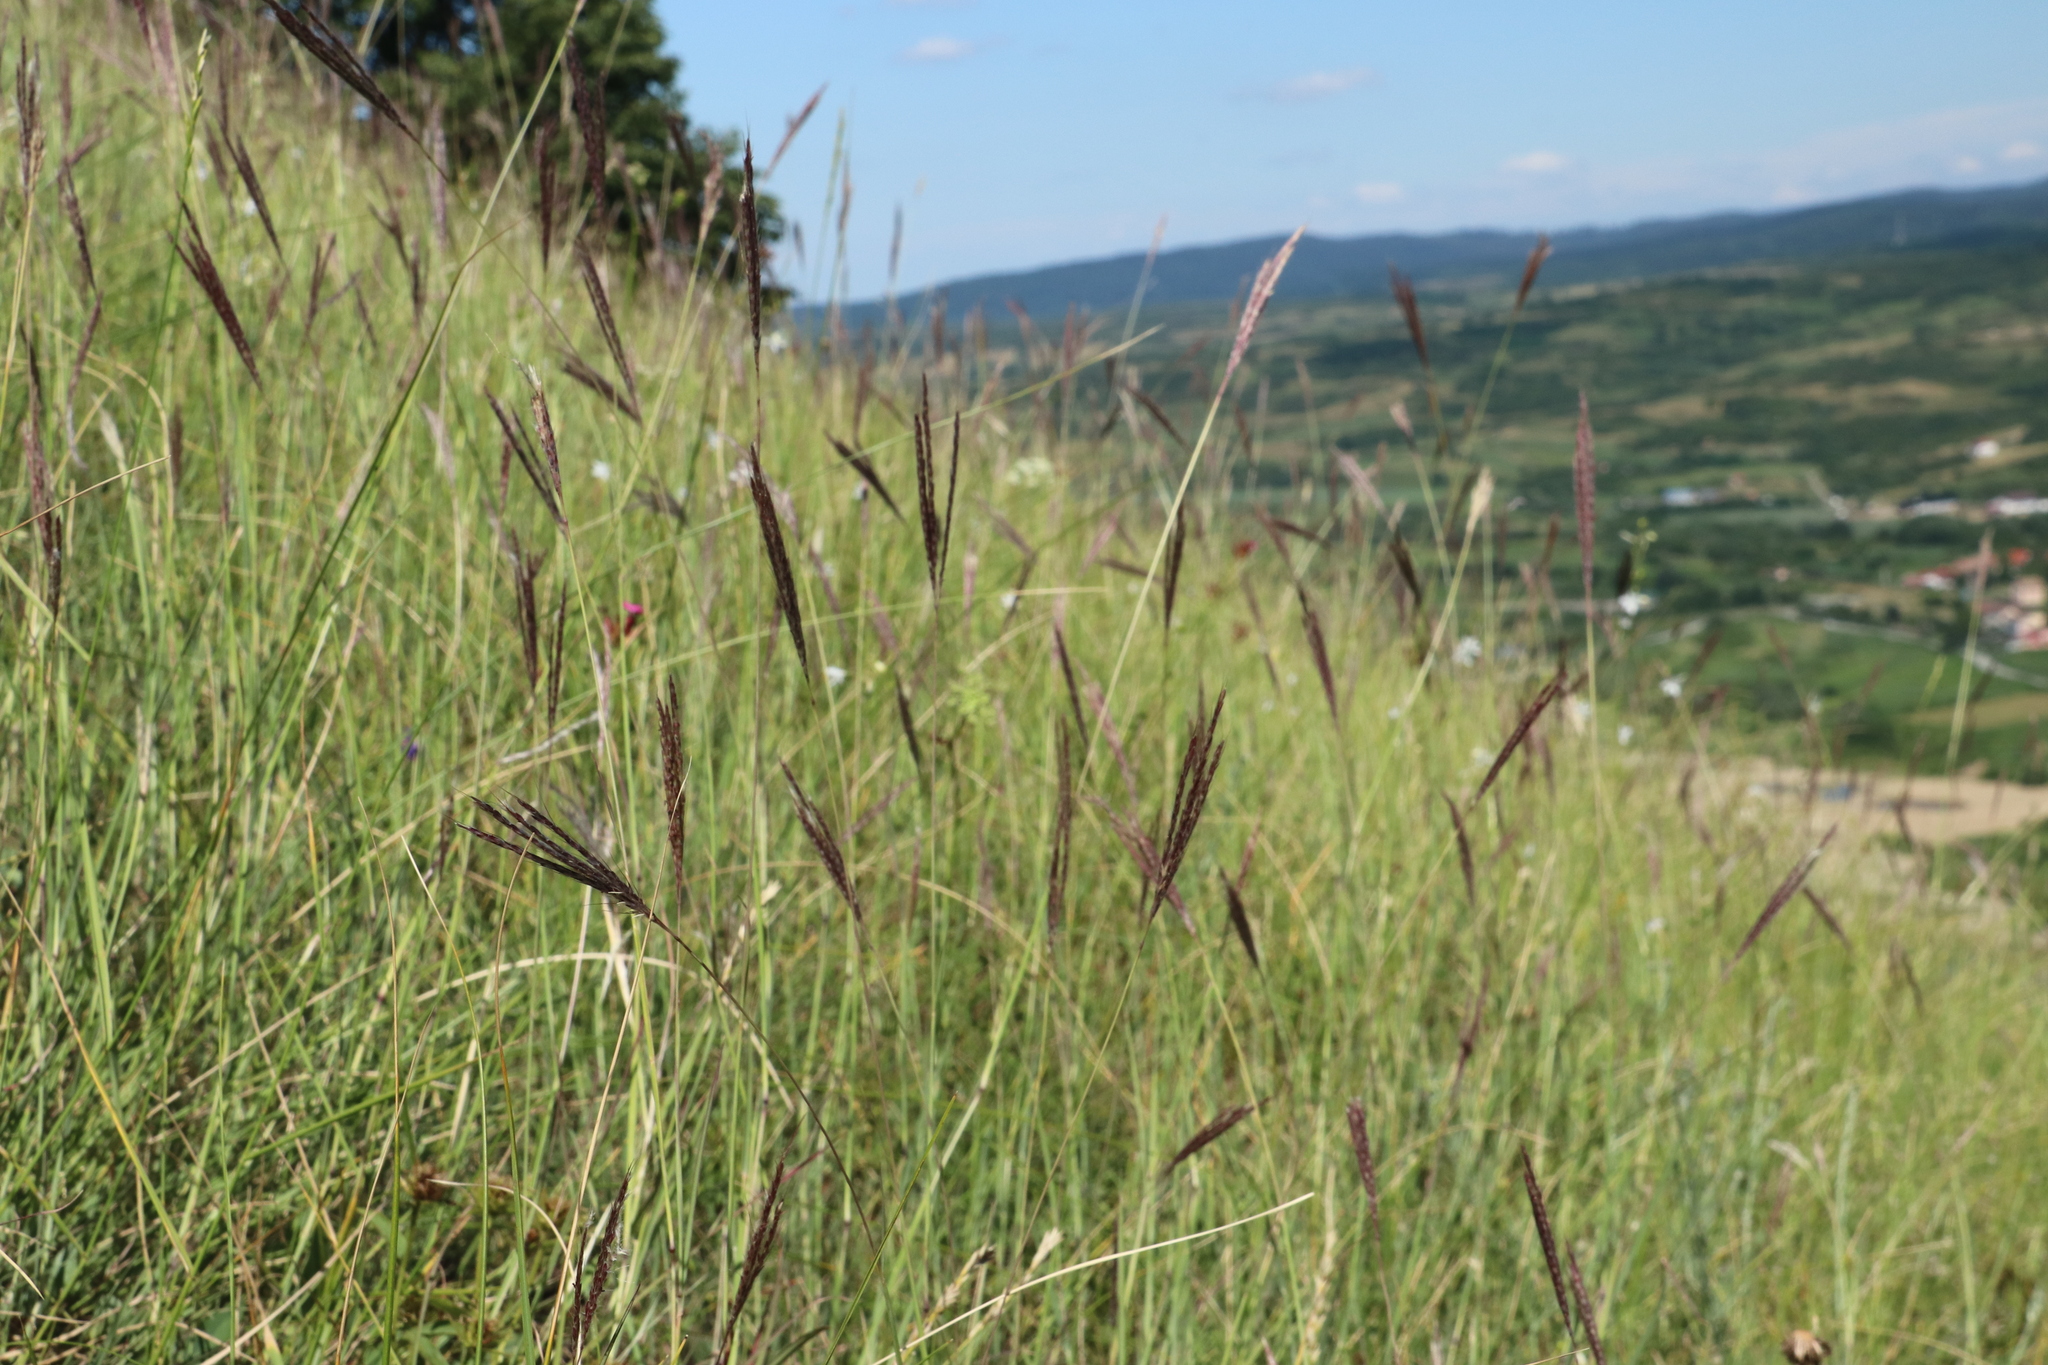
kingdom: Plantae
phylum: Tracheophyta
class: Liliopsida
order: Poales
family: Poaceae
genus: Bothriochloa
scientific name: Bothriochloa ischaemum
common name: Yellow bluestem
